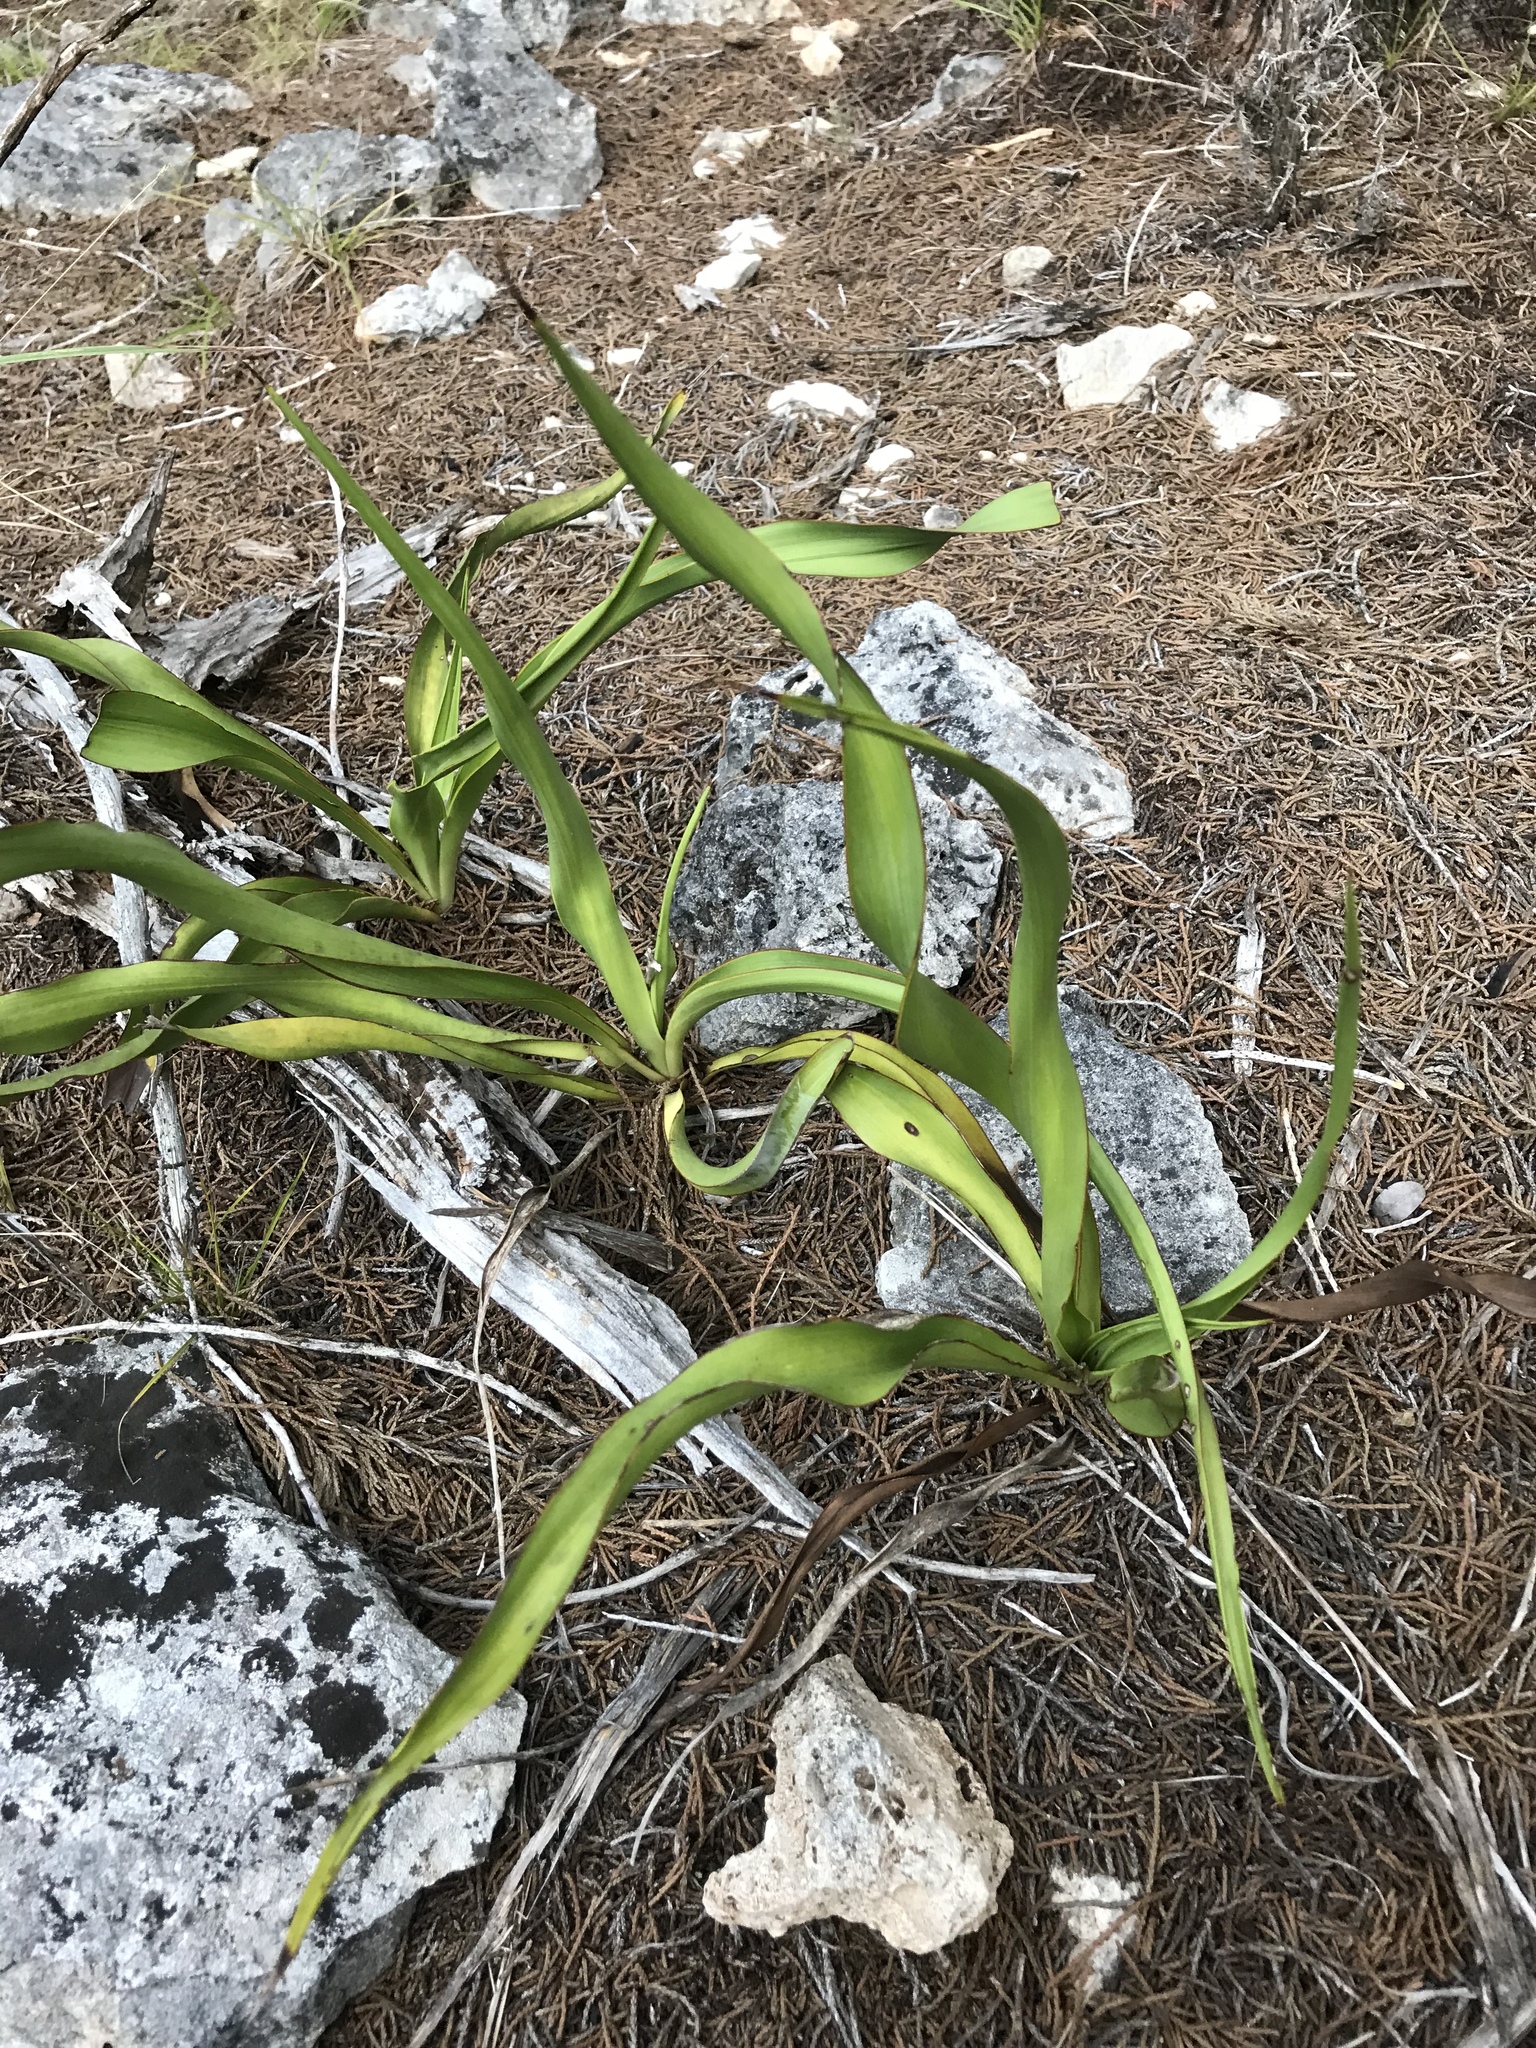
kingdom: Plantae
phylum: Tracheophyta
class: Liliopsida
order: Asparagales
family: Asparagaceae
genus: Yucca
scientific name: Yucca rupicola
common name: Twisted-leaf spanish-dagger
